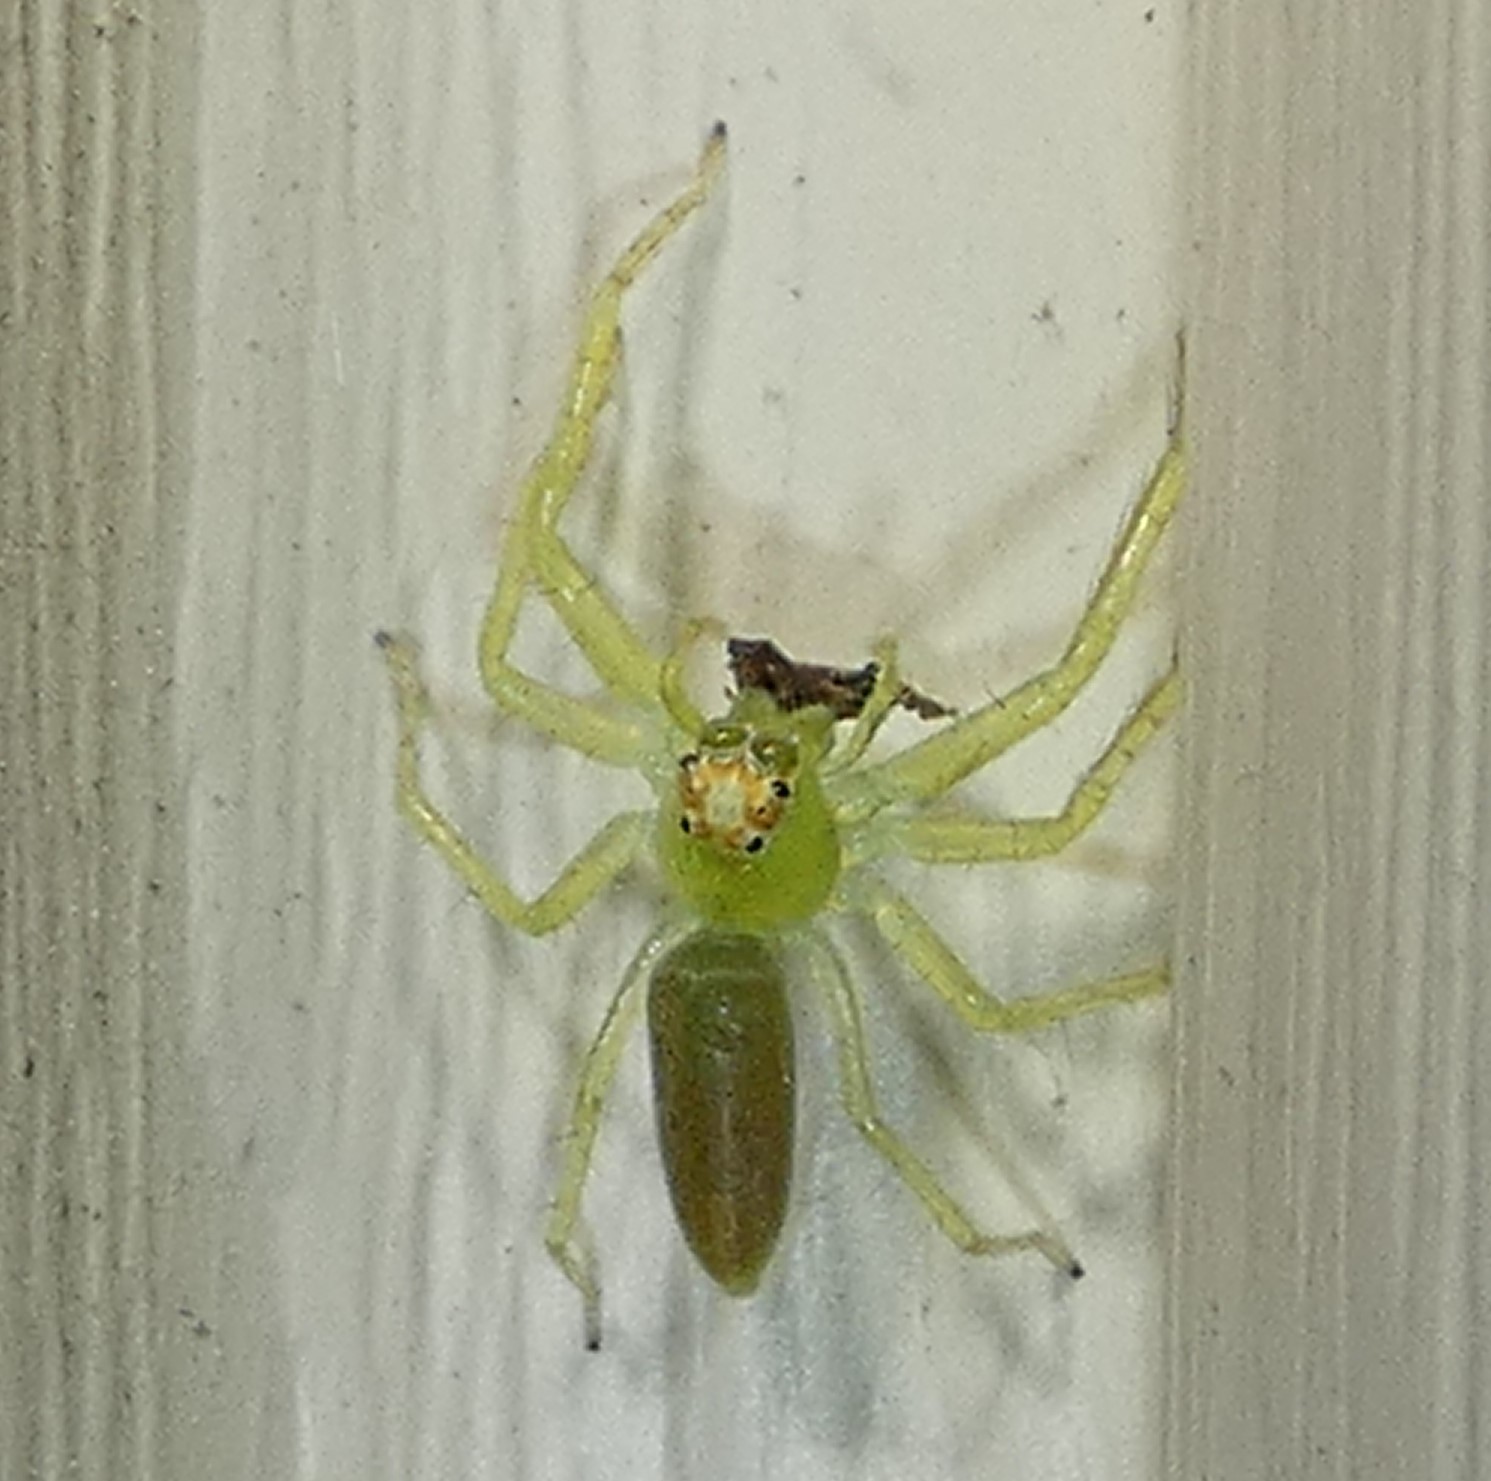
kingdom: Animalia
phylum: Arthropoda
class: Arachnida
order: Araneae
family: Salticidae
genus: Lyssomanes
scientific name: Lyssomanes viridis
